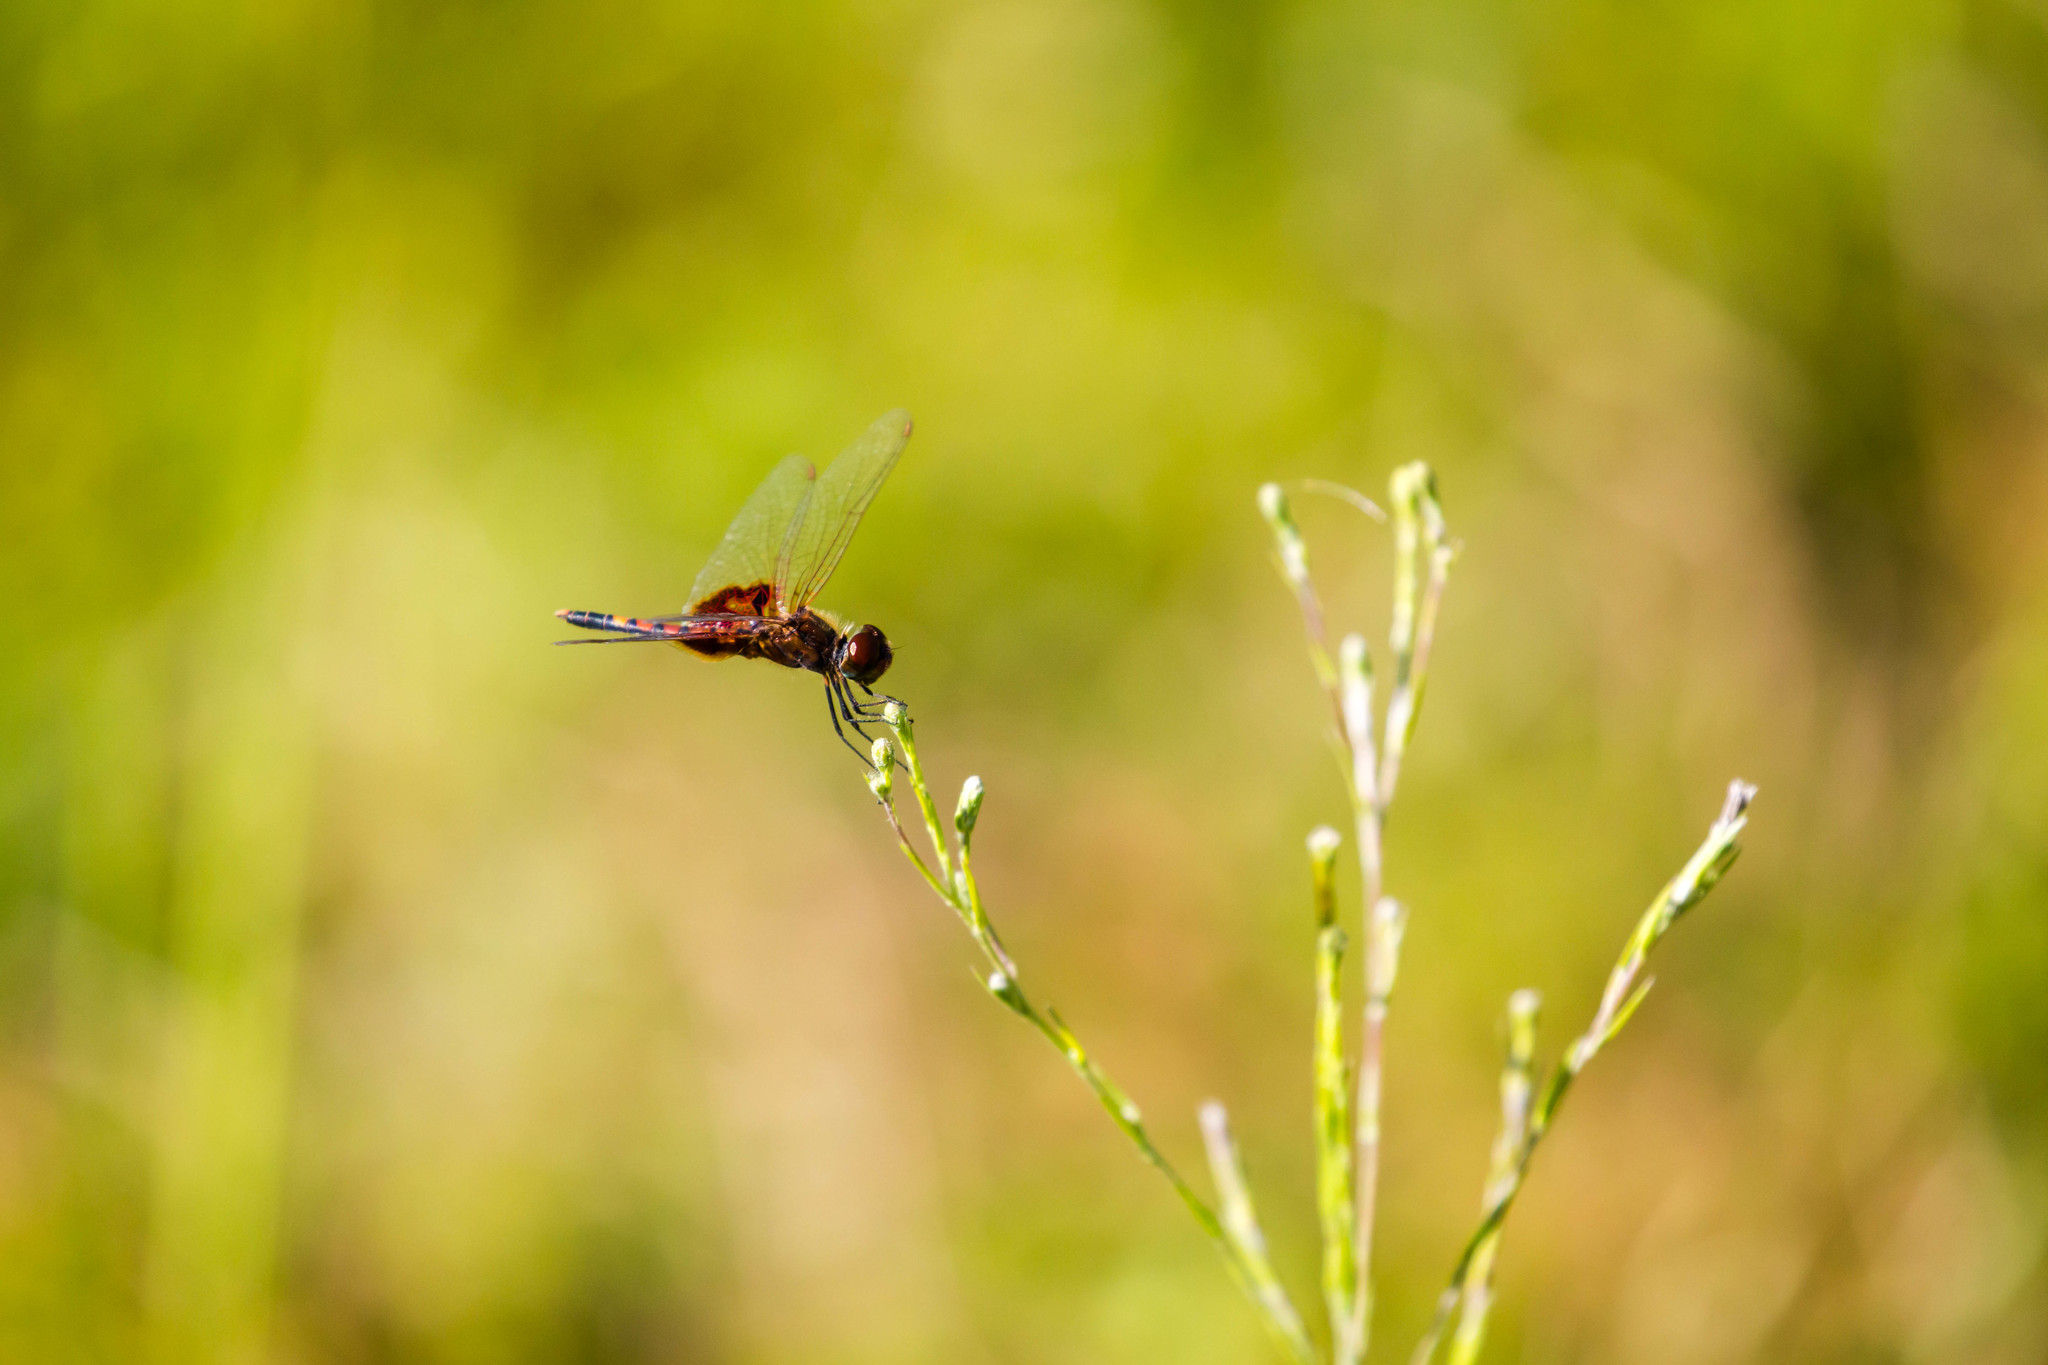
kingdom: Animalia
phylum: Arthropoda
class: Insecta
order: Odonata
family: Libellulidae
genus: Celithemis
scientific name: Celithemis amanda
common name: Amanda's pennant
